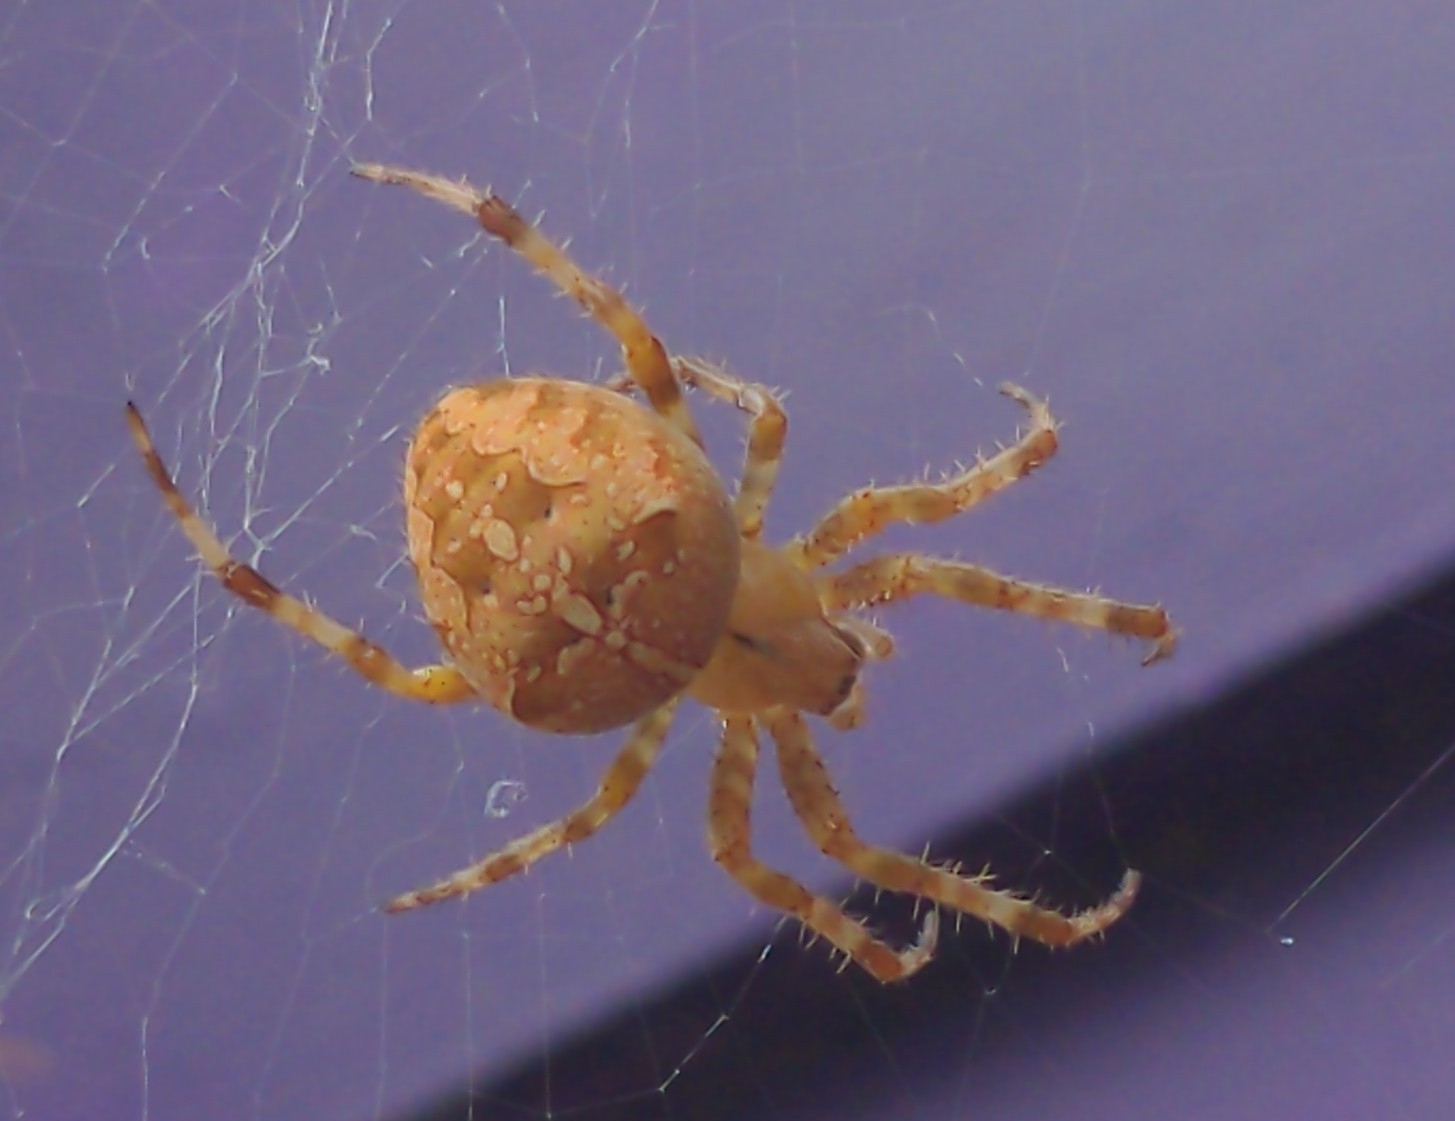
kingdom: Animalia
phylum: Arthropoda
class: Arachnida
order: Araneae
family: Araneidae
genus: Araneus
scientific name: Araneus diadematus
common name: Cross orbweaver
